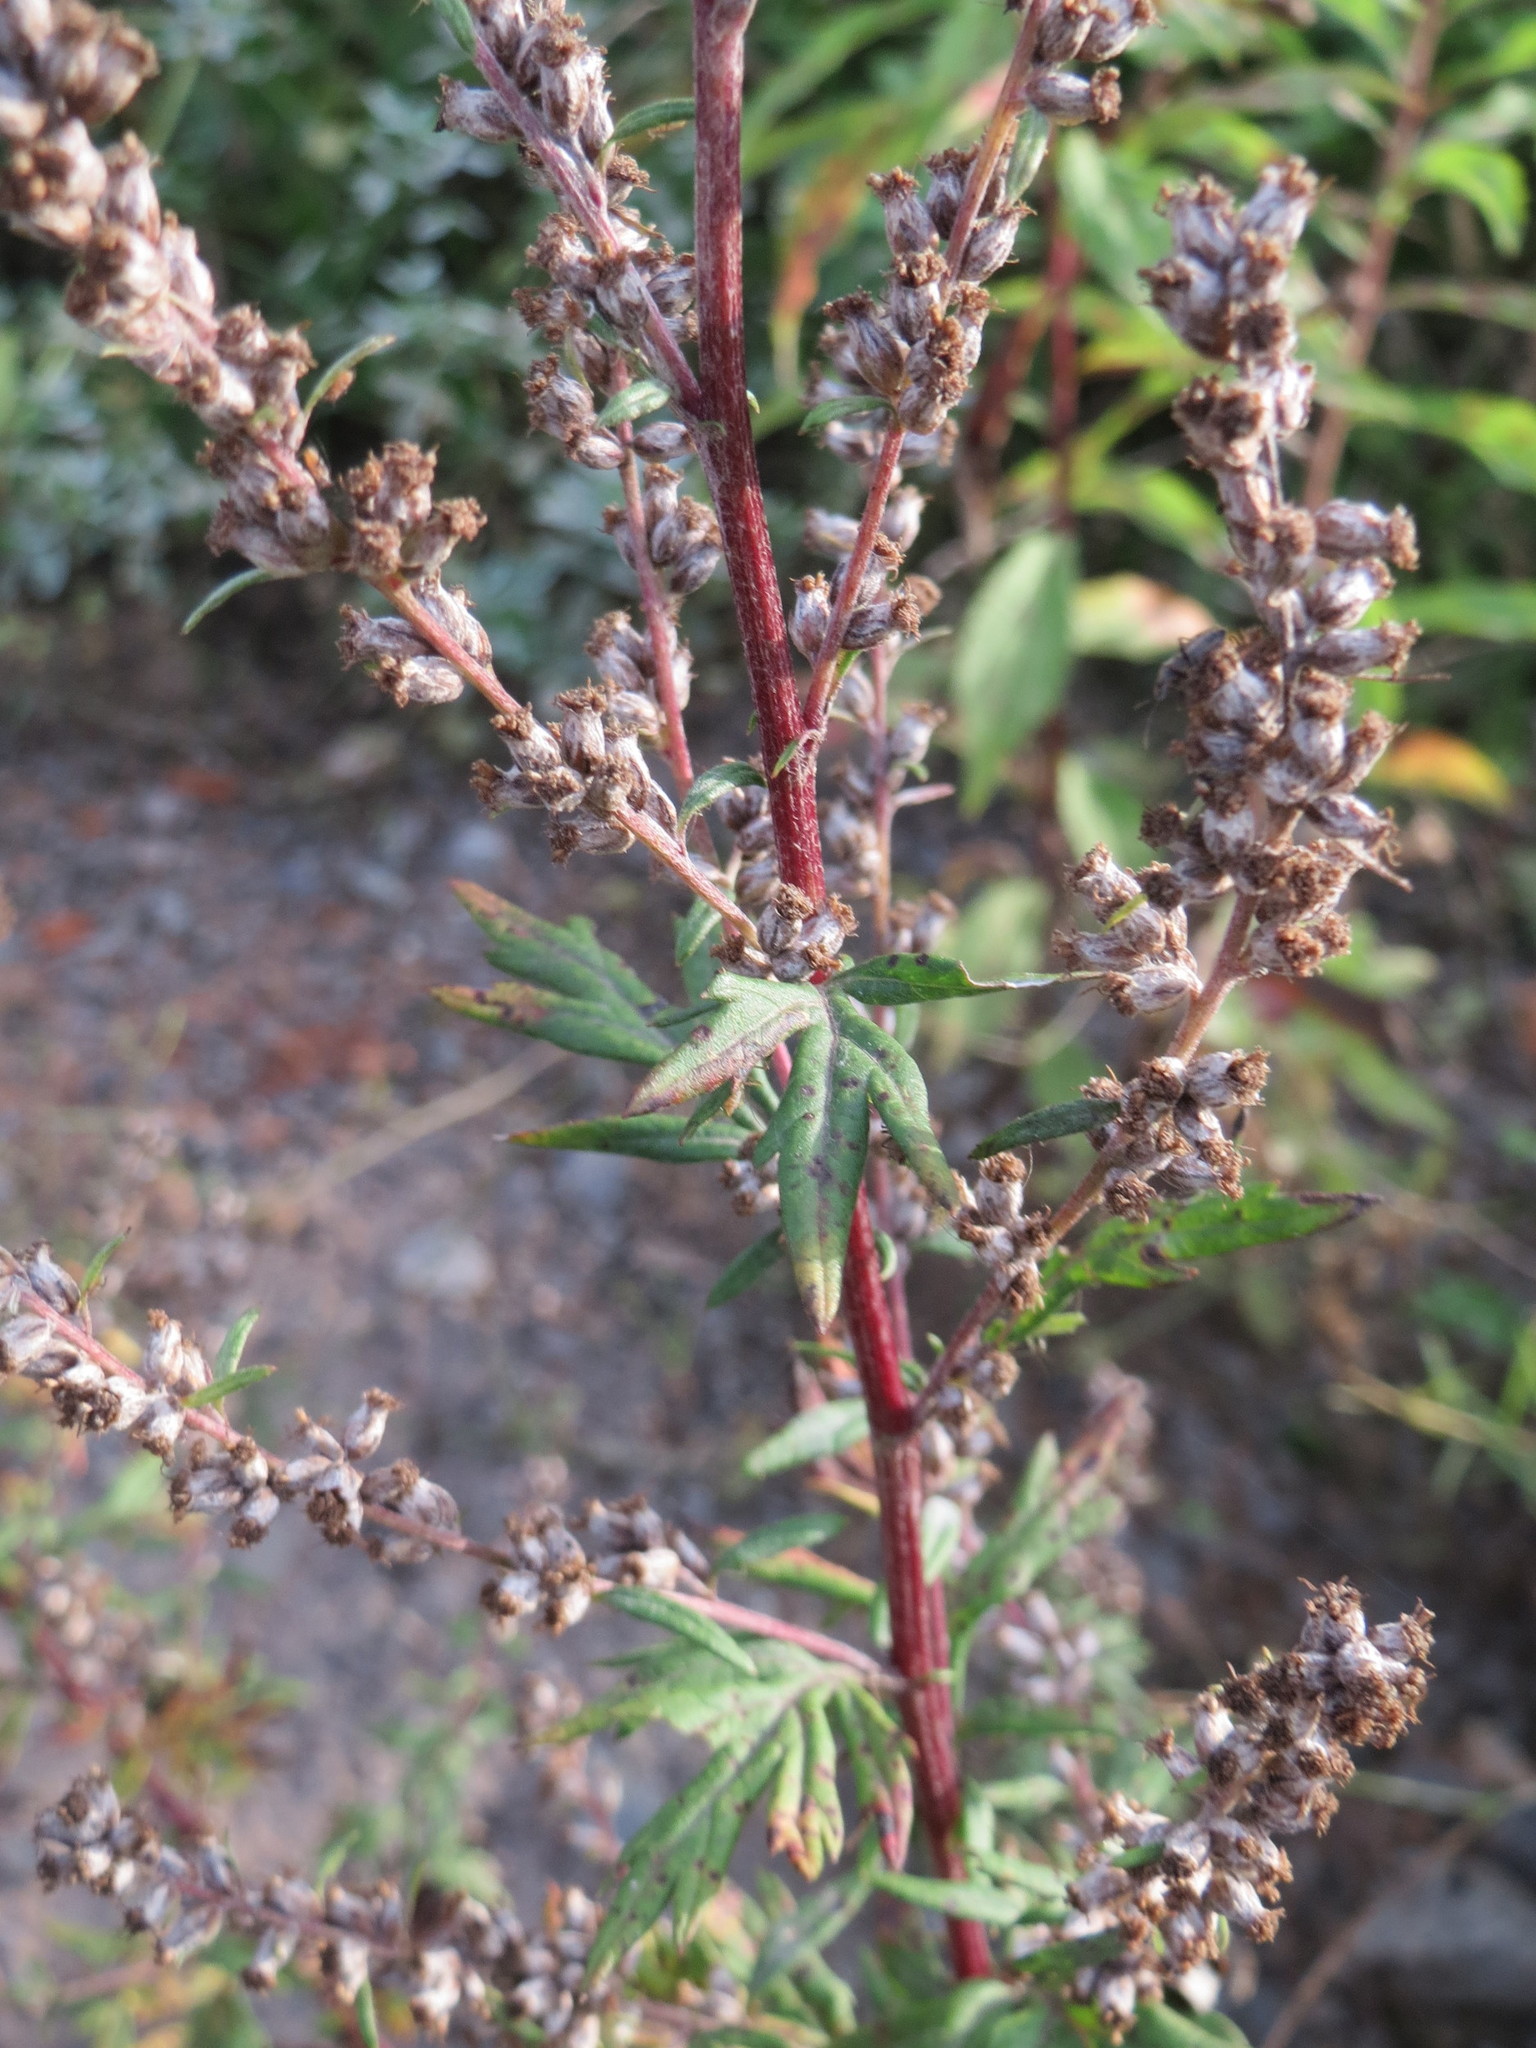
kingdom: Plantae
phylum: Tracheophyta
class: Magnoliopsida
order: Asterales
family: Asteraceae
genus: Artemisia
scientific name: Artemisia vulgaris
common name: Mugwort
